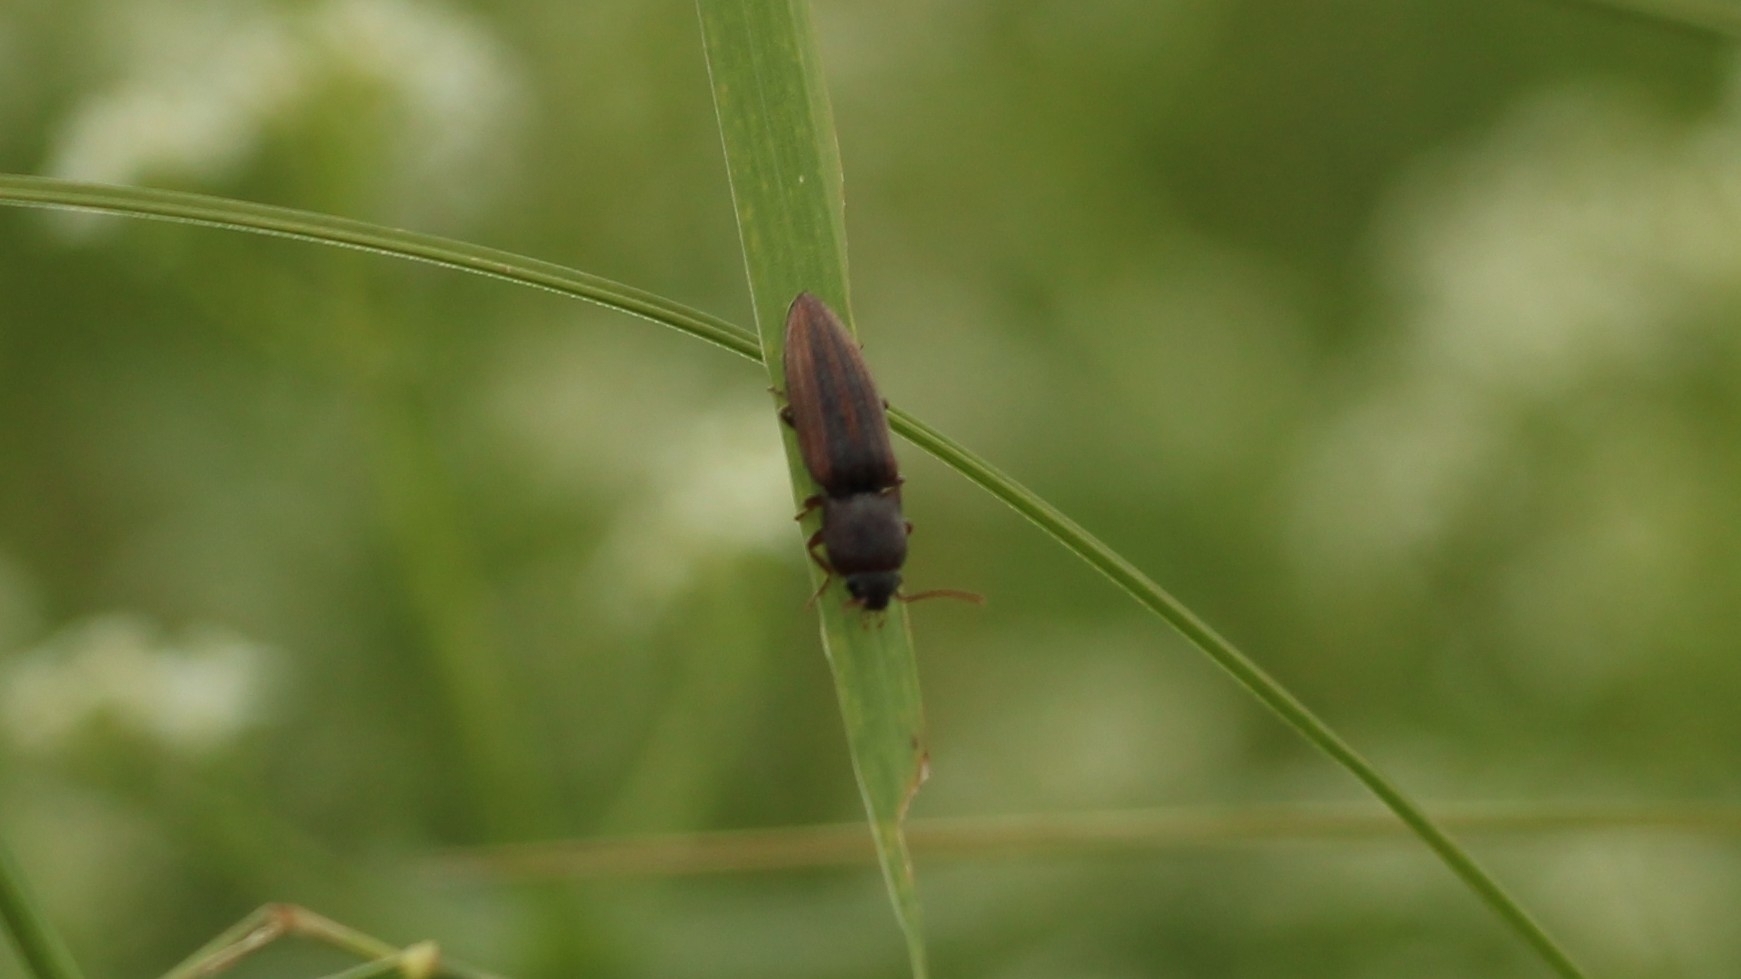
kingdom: Animalia
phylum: Arthropoda
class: Insecta
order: Coleoptera
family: Elateridae
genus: Agriotes
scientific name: Agriotes lineatus
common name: Lined click beetle
